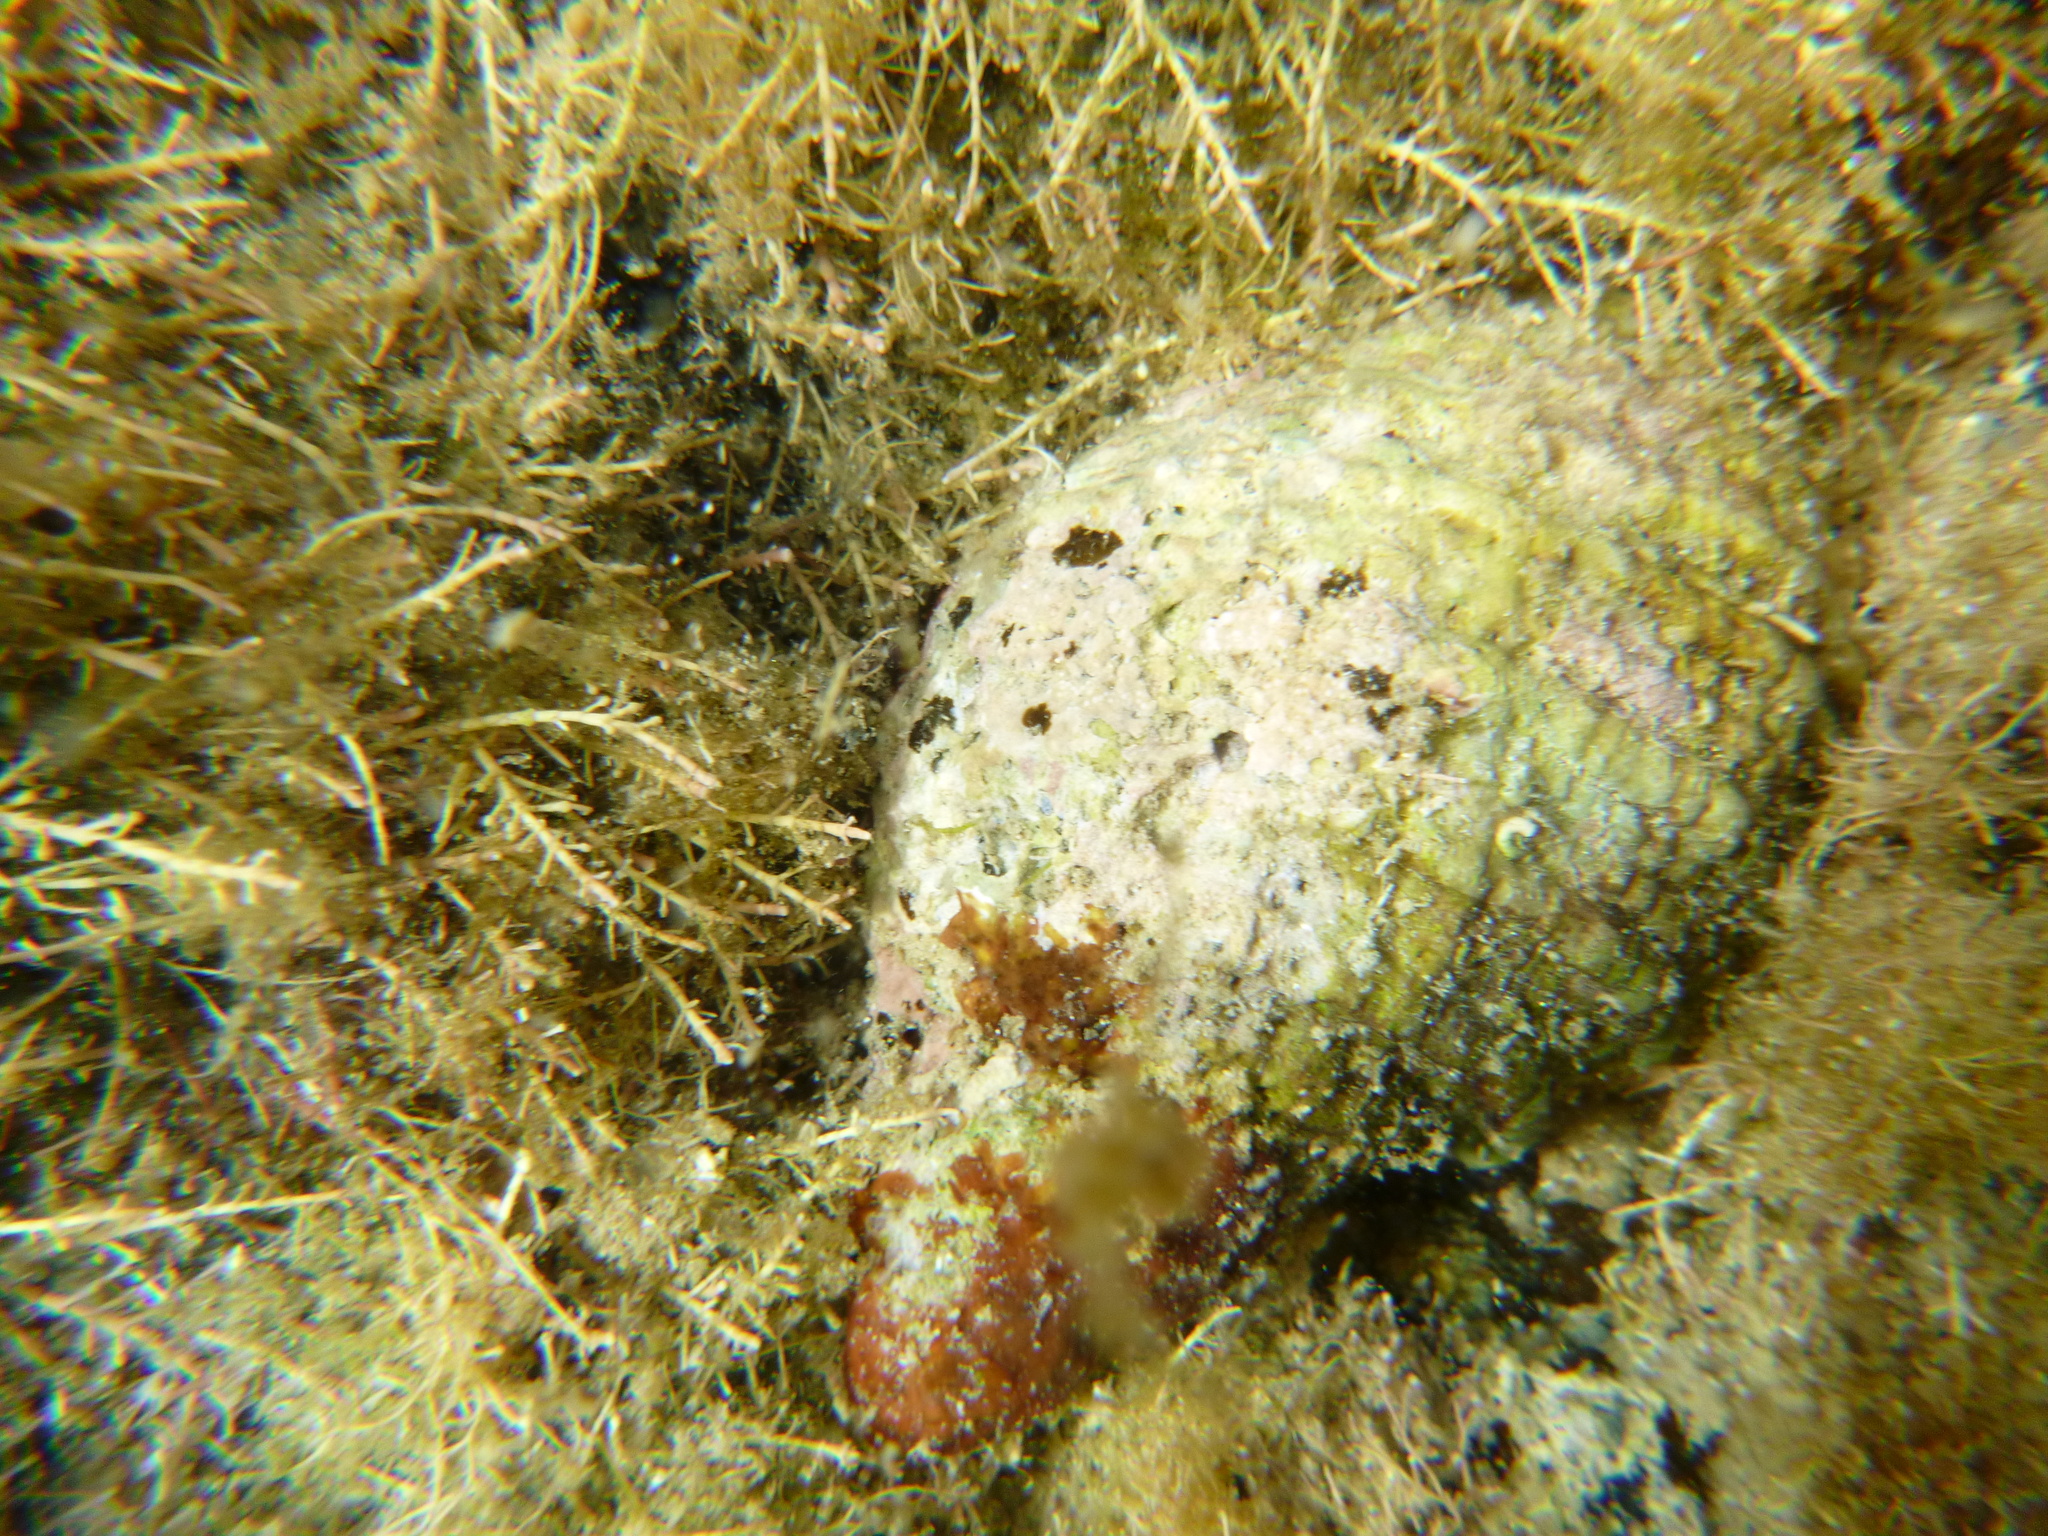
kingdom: Animalia
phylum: Mollusca
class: Gastropoda
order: Neogastropoda
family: Muricidae
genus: Dicathais
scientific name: Dicathais orbita
